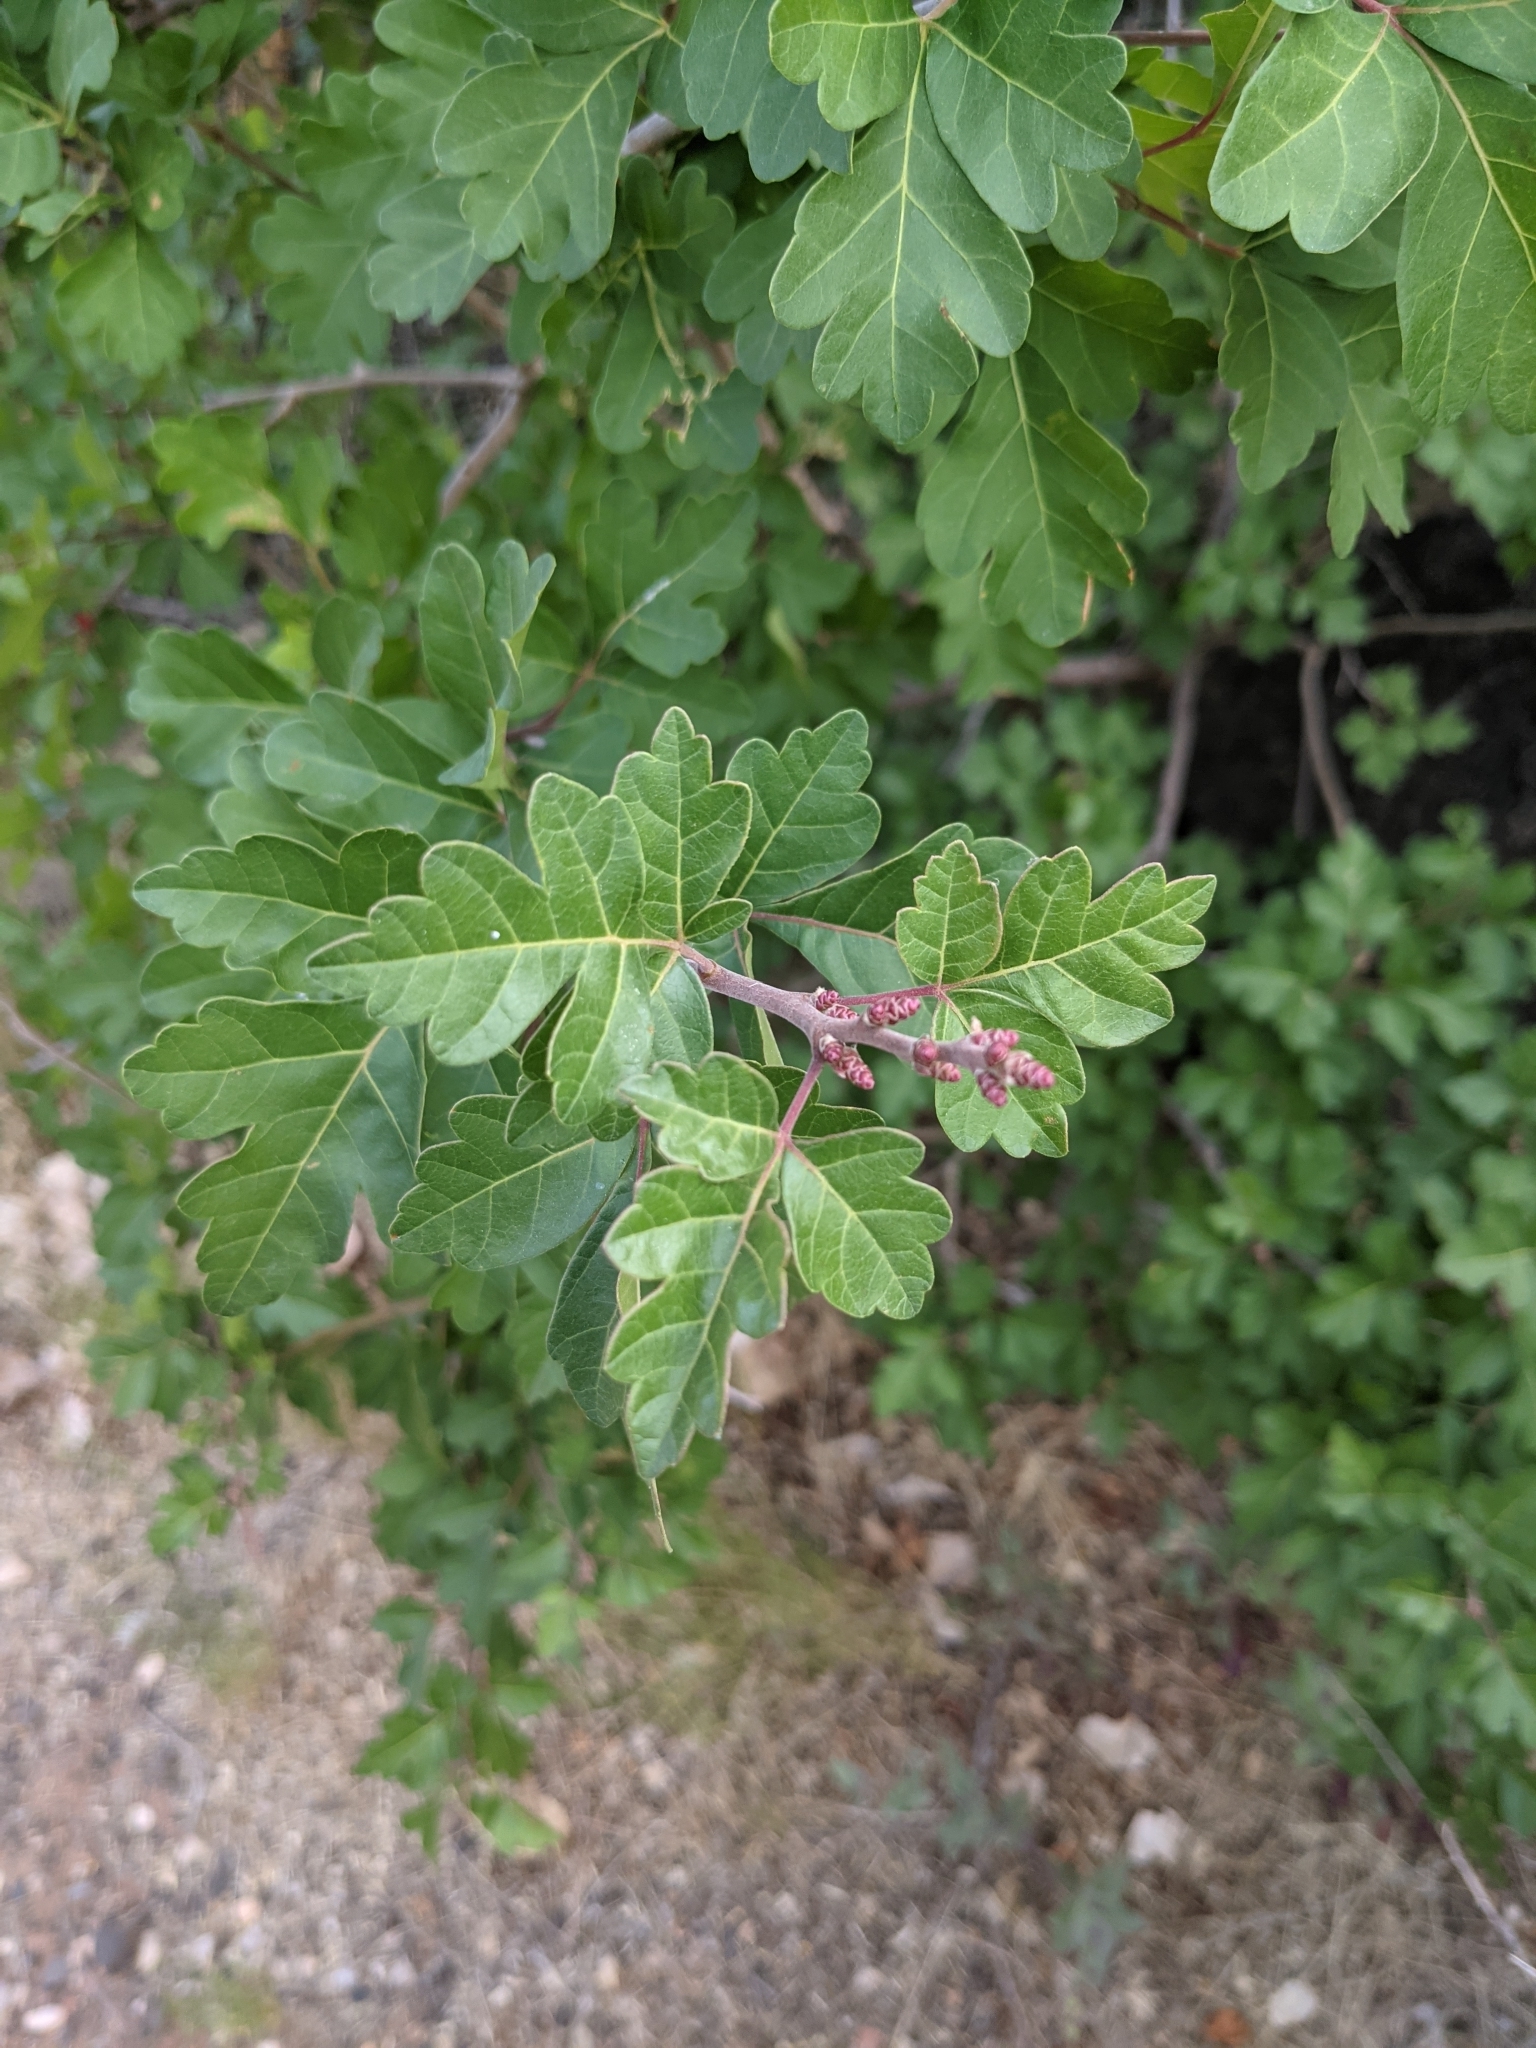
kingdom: Plantae
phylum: Tracheophyta
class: Magnoliopsida
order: Sapindales
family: Anacardiaceae
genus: Rhus
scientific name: Rhus aromatica
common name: Aromatic sumac
